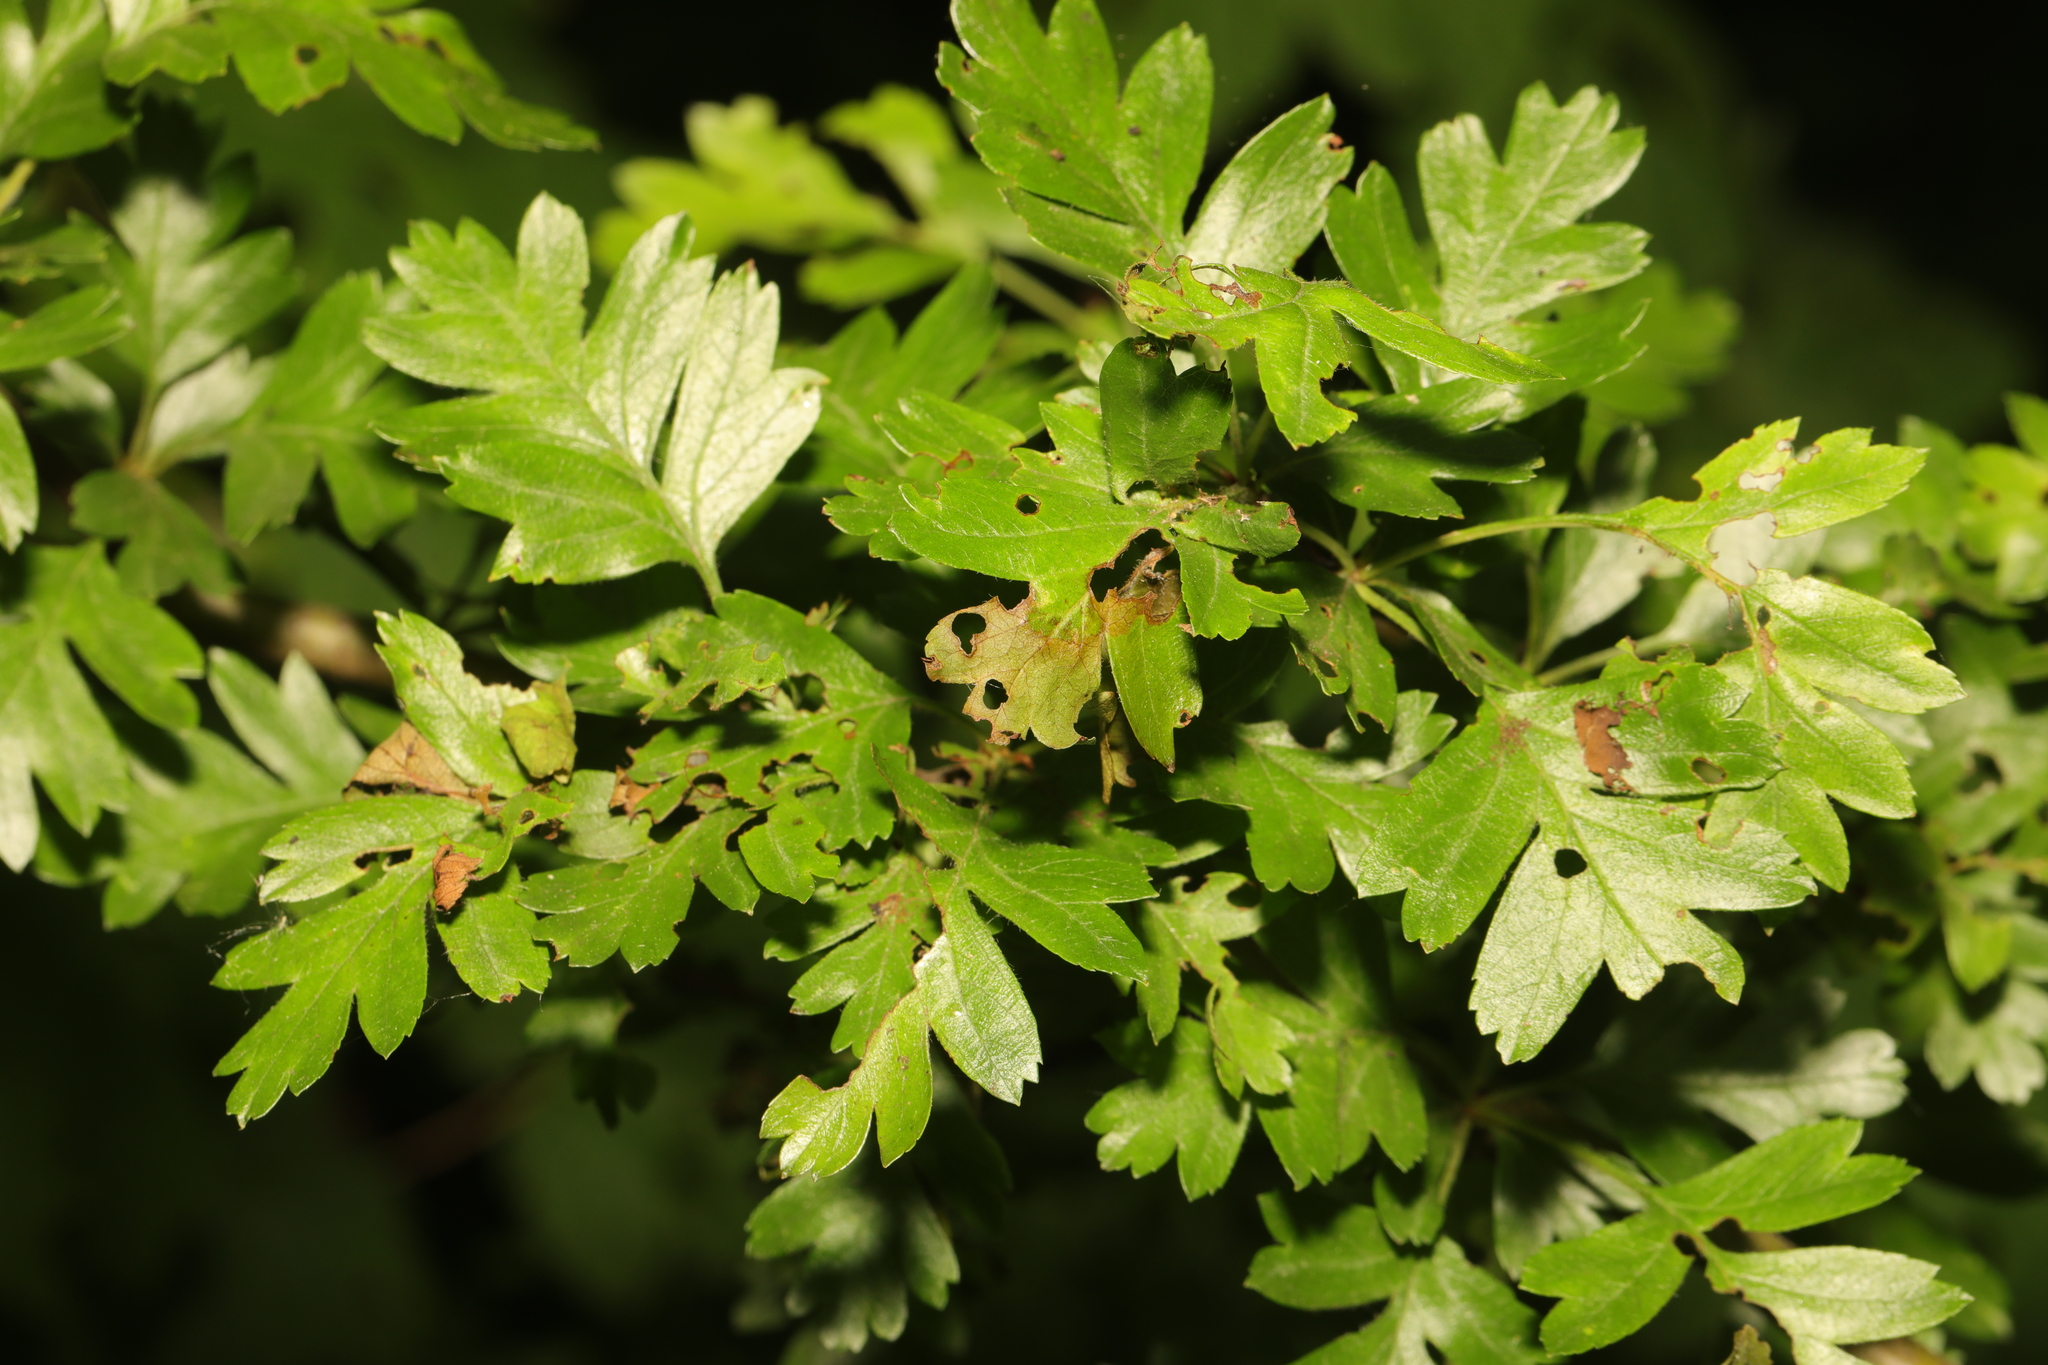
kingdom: Plantae
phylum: Tracheophyta
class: Magnoliopsida
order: Rosales
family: Rosaceae
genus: Crataegus
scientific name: Crataegus monogyna
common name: Hawthorn
